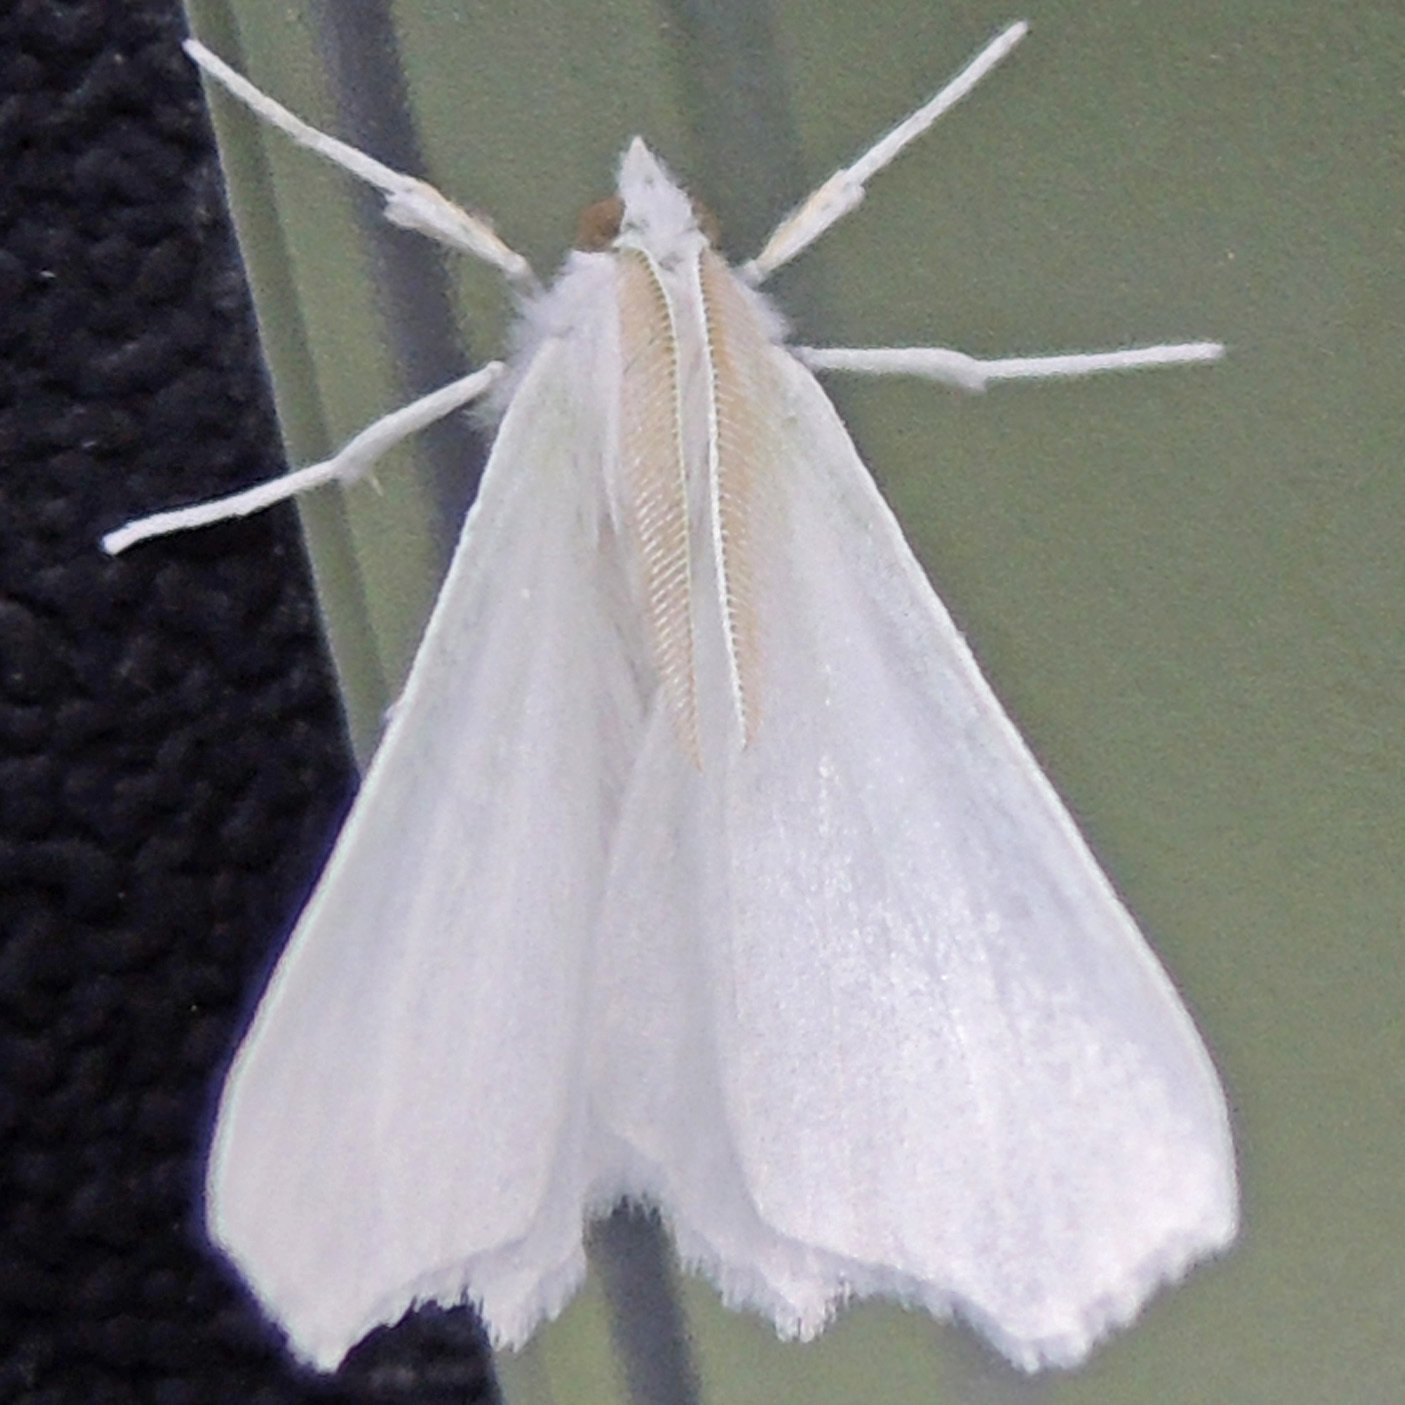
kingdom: Animalia
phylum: Arthropoda
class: Insecta
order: Lepidoptera
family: Geometridae
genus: Ennomos
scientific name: Ennomos subsignaria
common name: Elm spanworm
